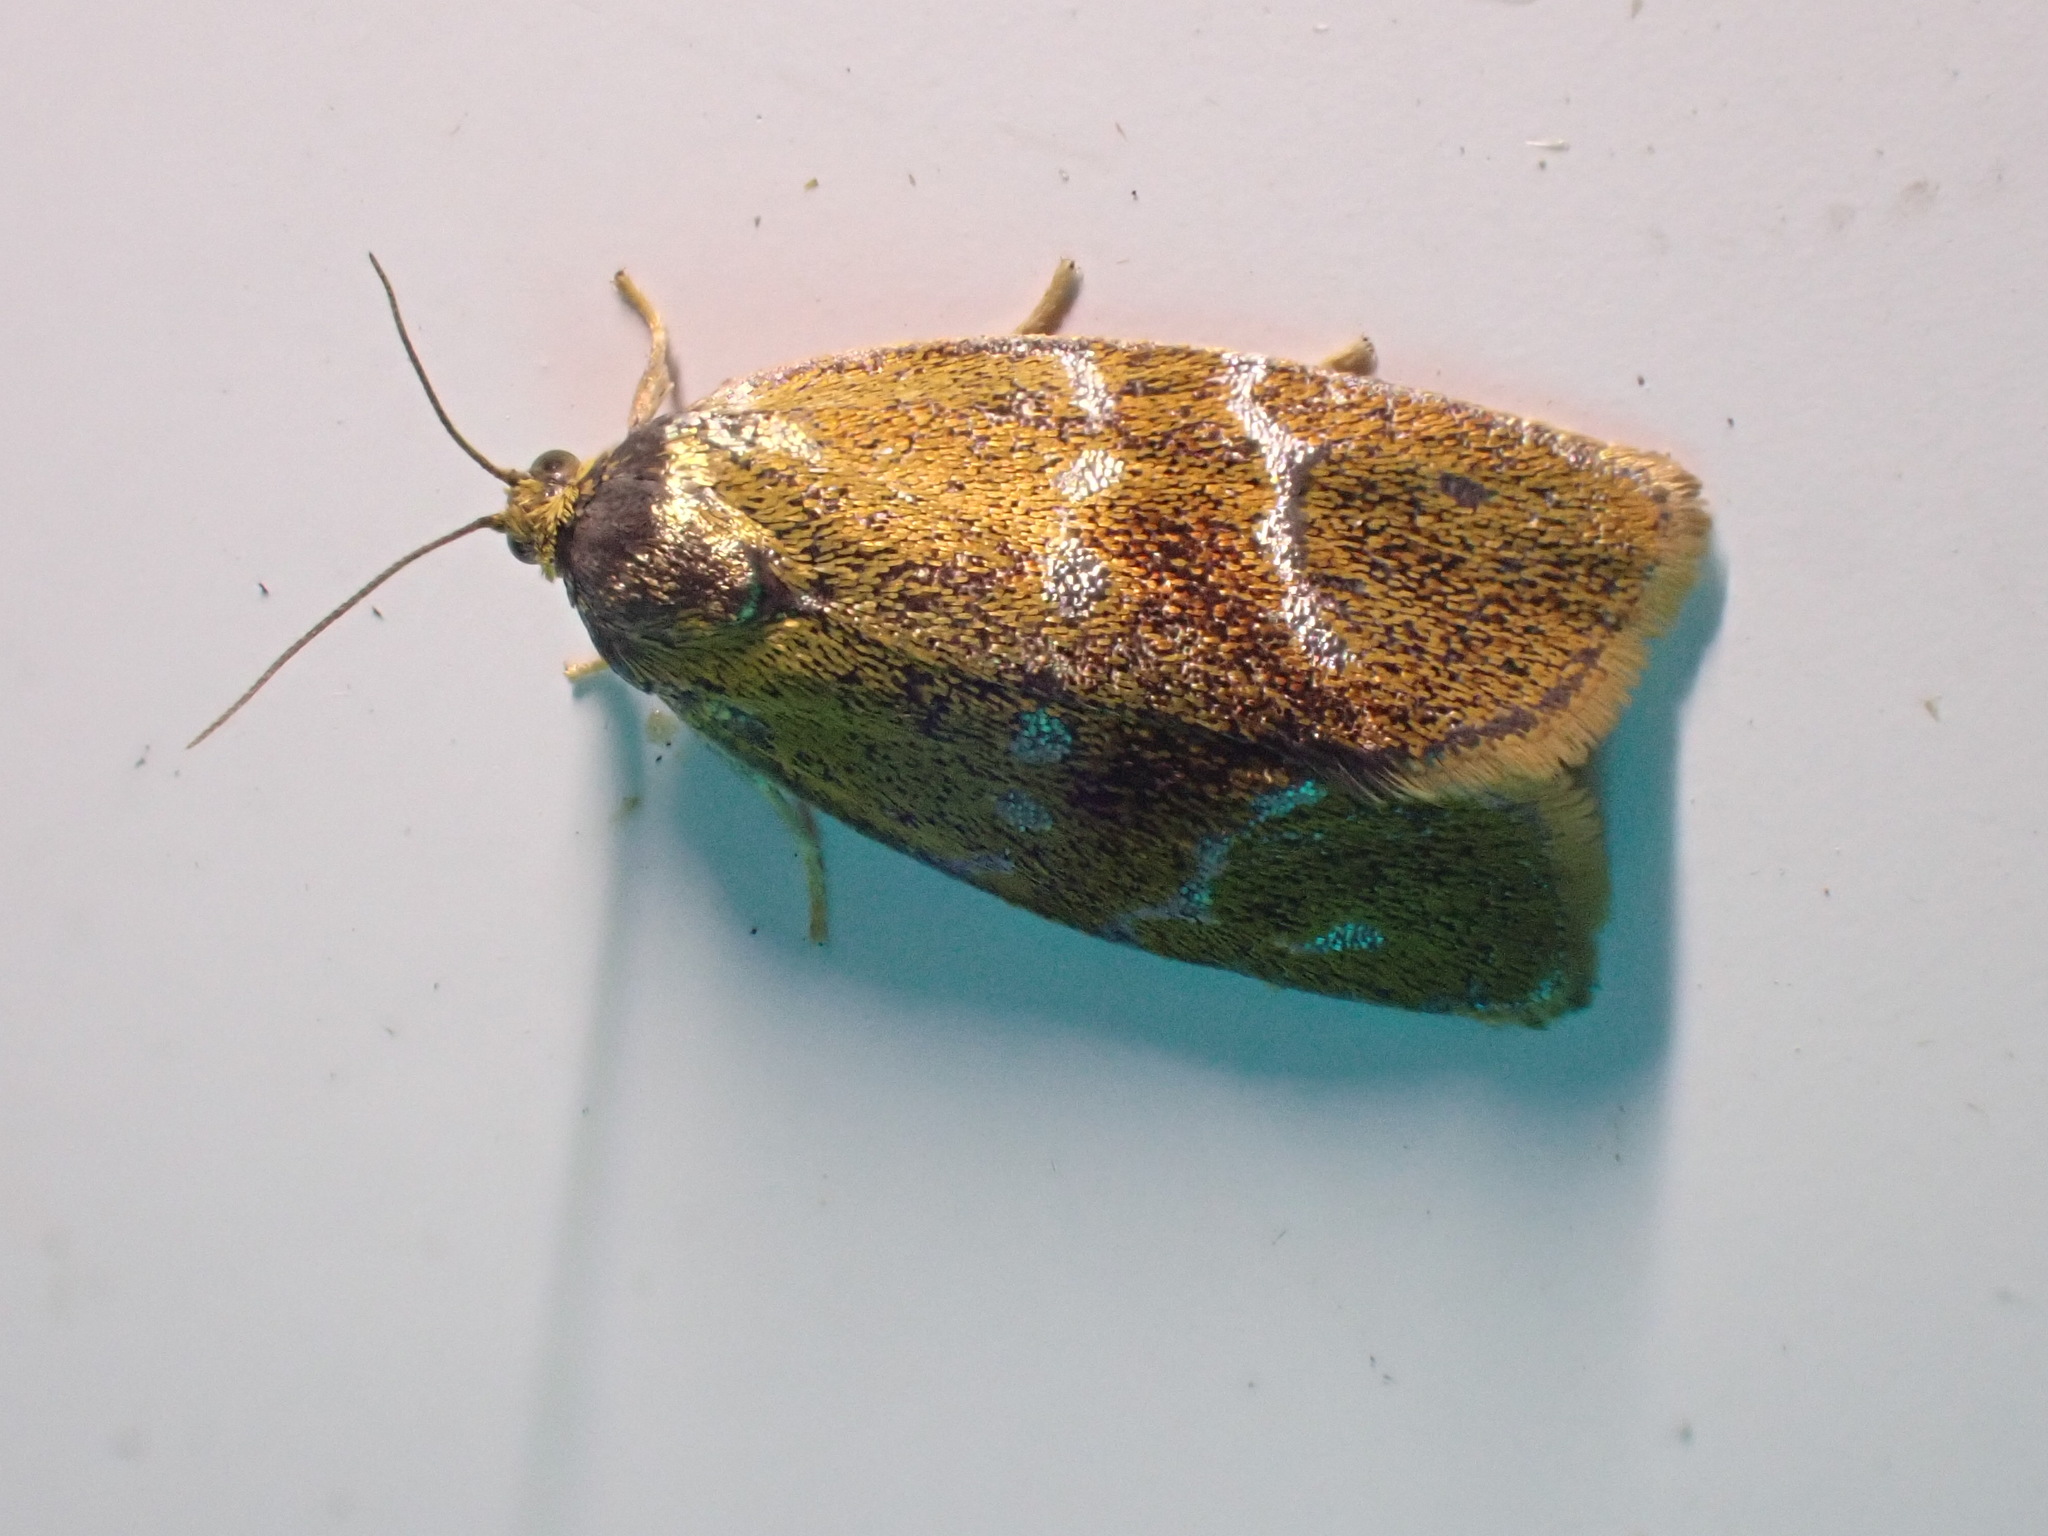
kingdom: Animalia
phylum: Arthropoda
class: Insecta
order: Lepidoptera
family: Tortricidae
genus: Ptycholoma
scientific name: Ptycholoma lecheana
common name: Leches twist moth
